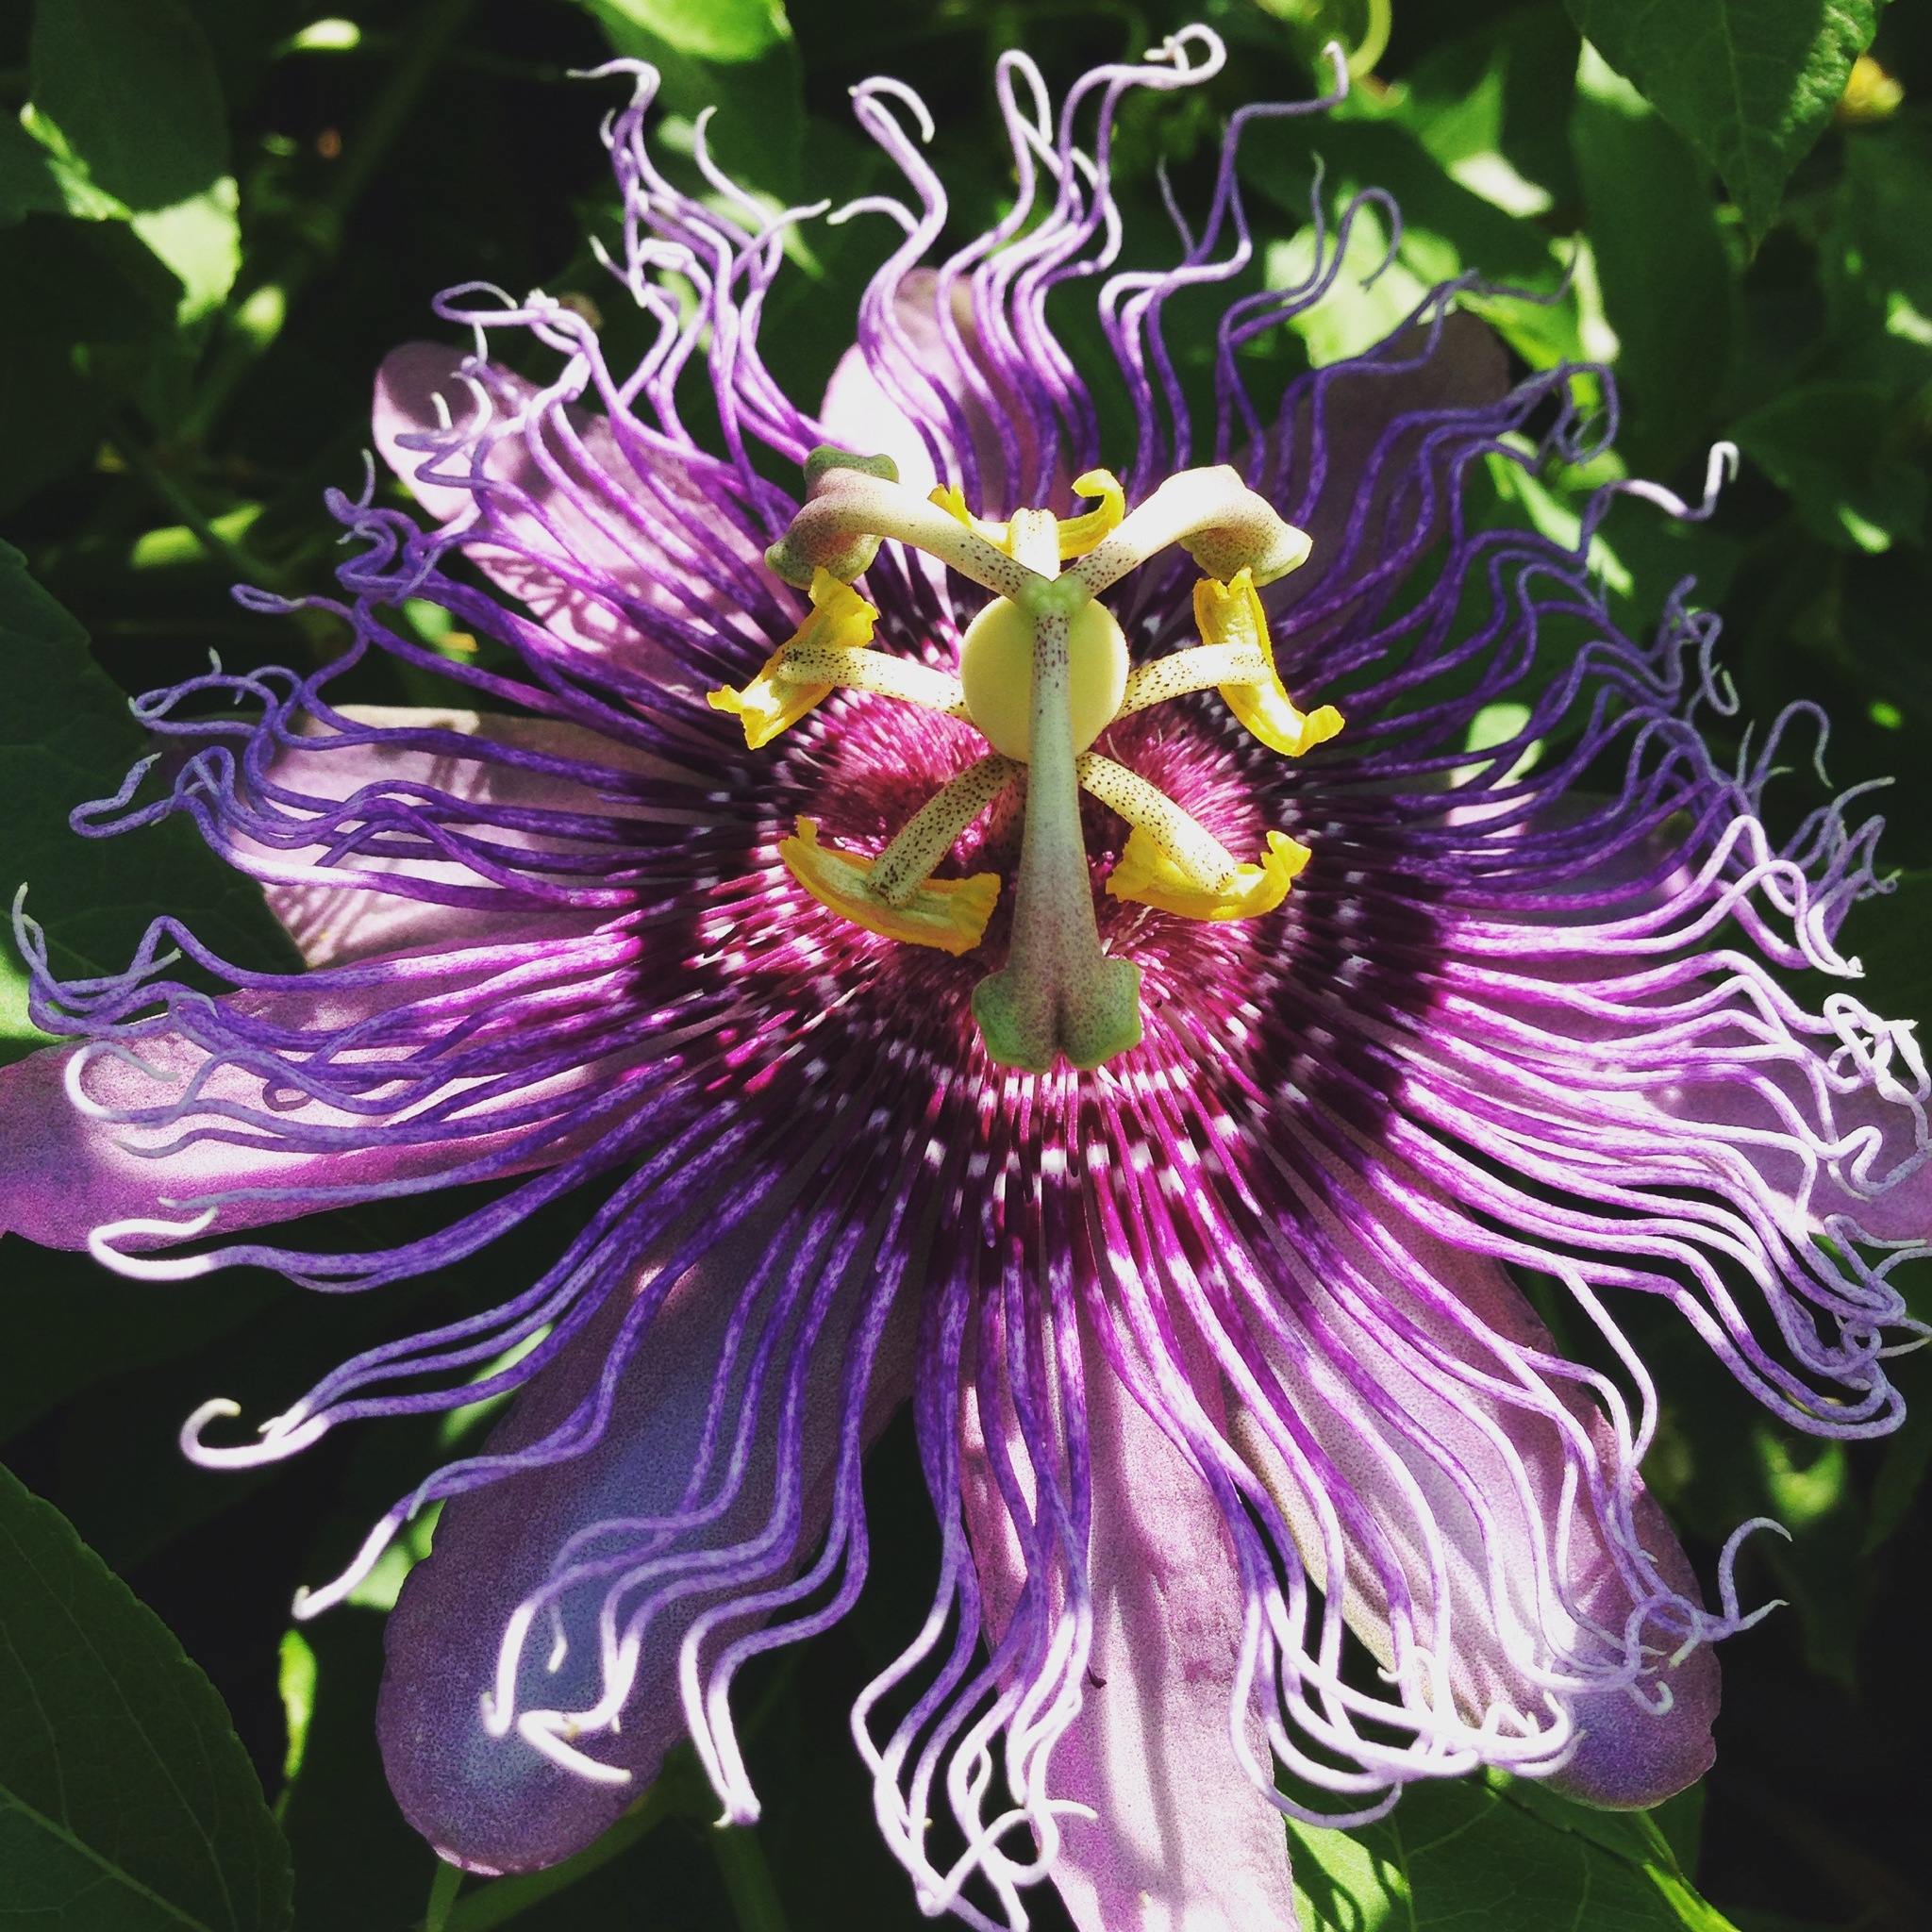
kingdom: Plantae
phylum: Tracheophyta
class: Magnoliopsida
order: Malpighiales
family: Passifloraceae
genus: Passiflora
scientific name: Passiflora
